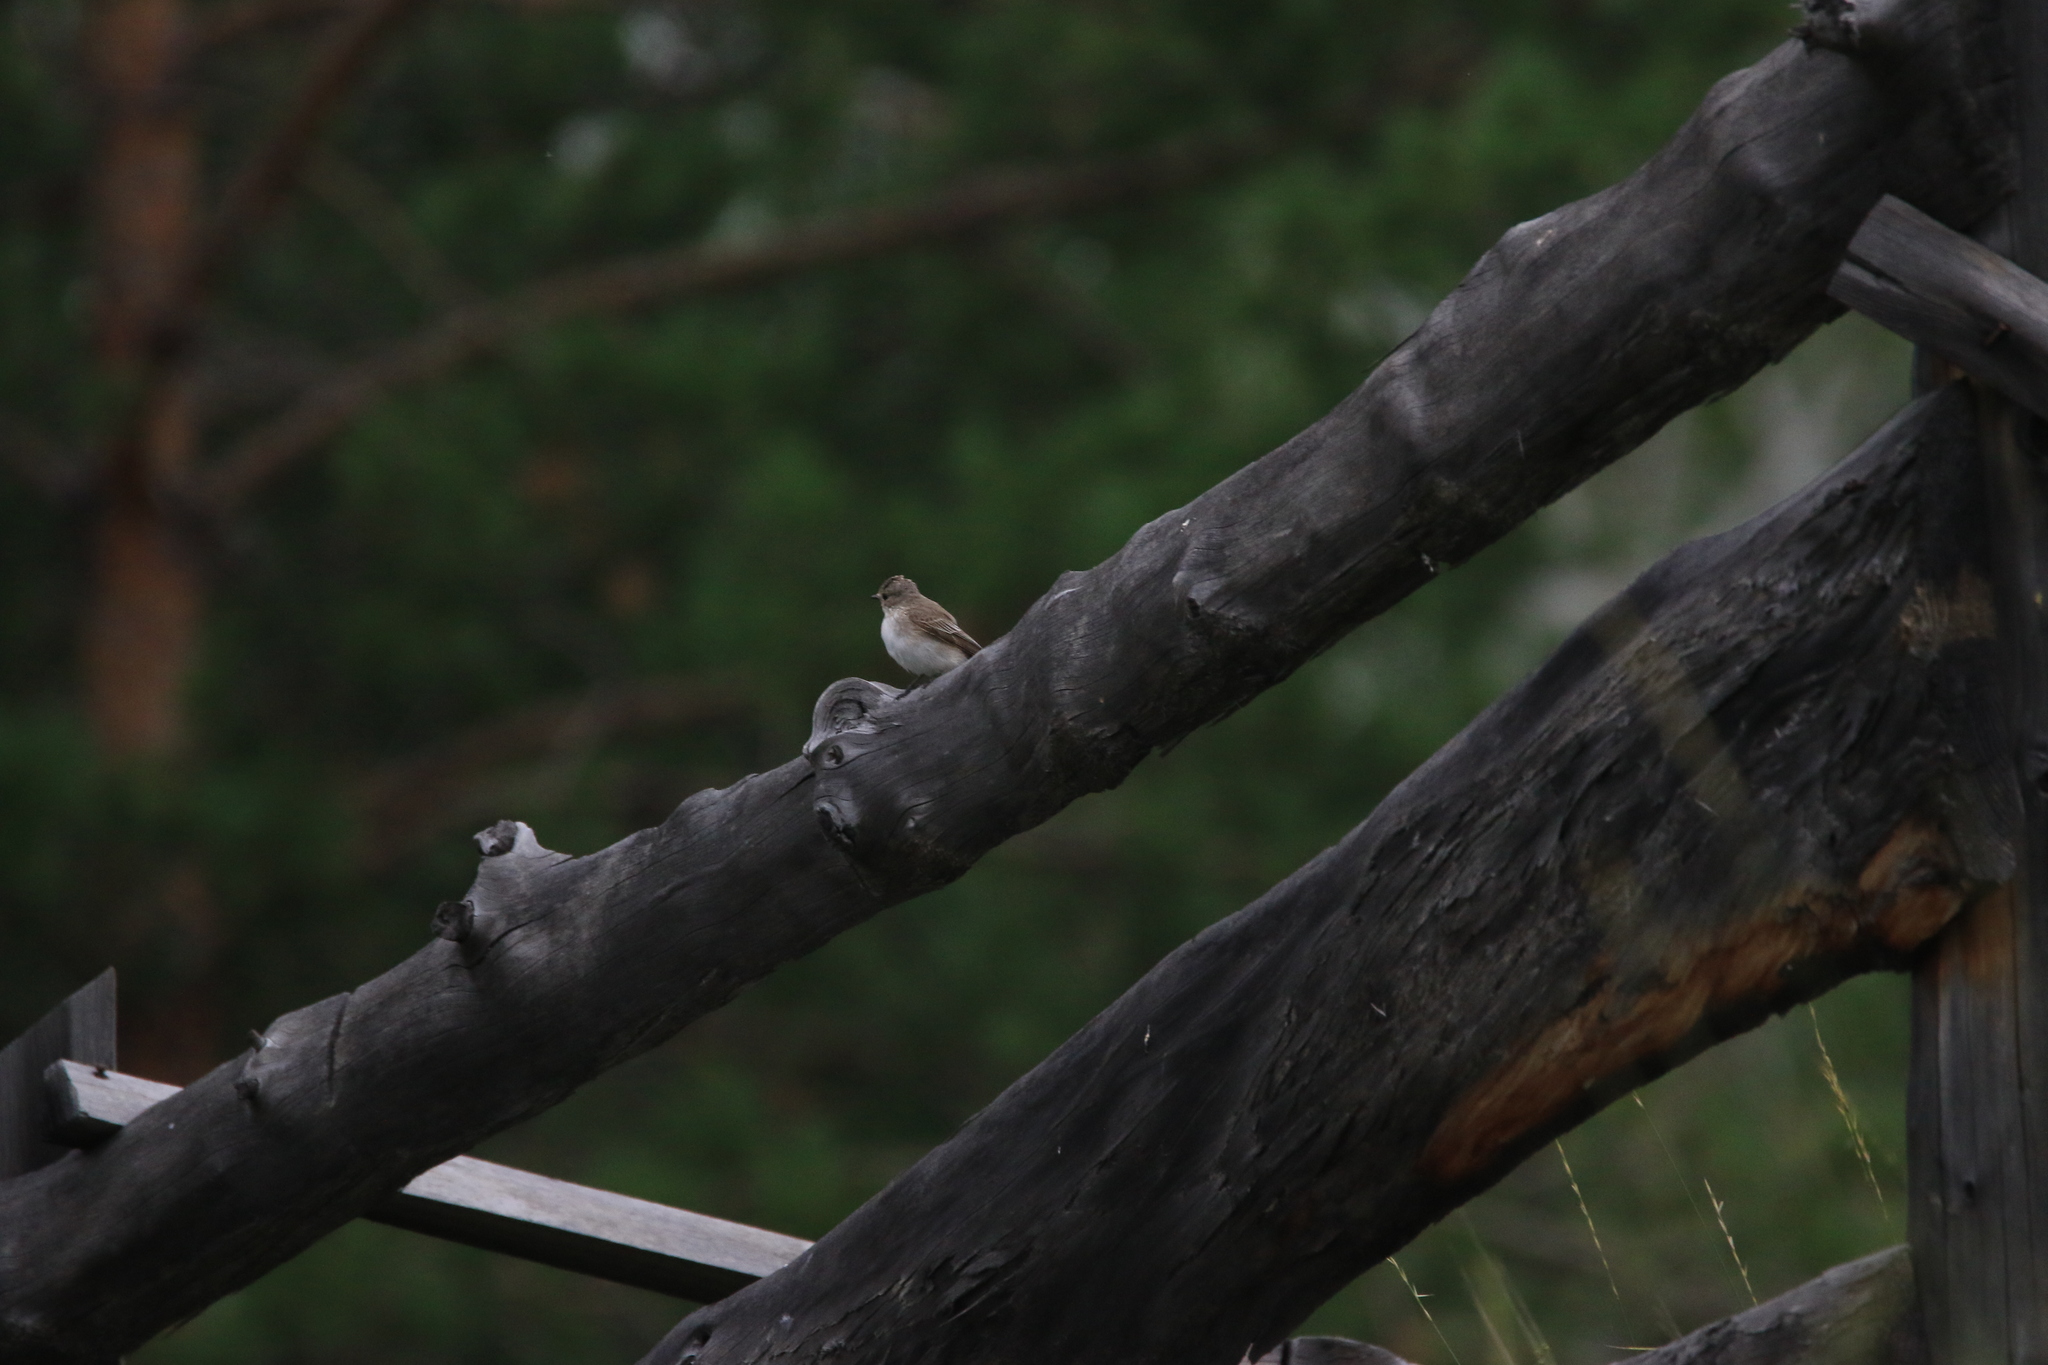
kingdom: Animalia
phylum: Chordata
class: Aves
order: Passeriformes
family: Muscicapidae
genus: Muscicapa
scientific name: Muscicapa striata
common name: Spotted flycatcher
